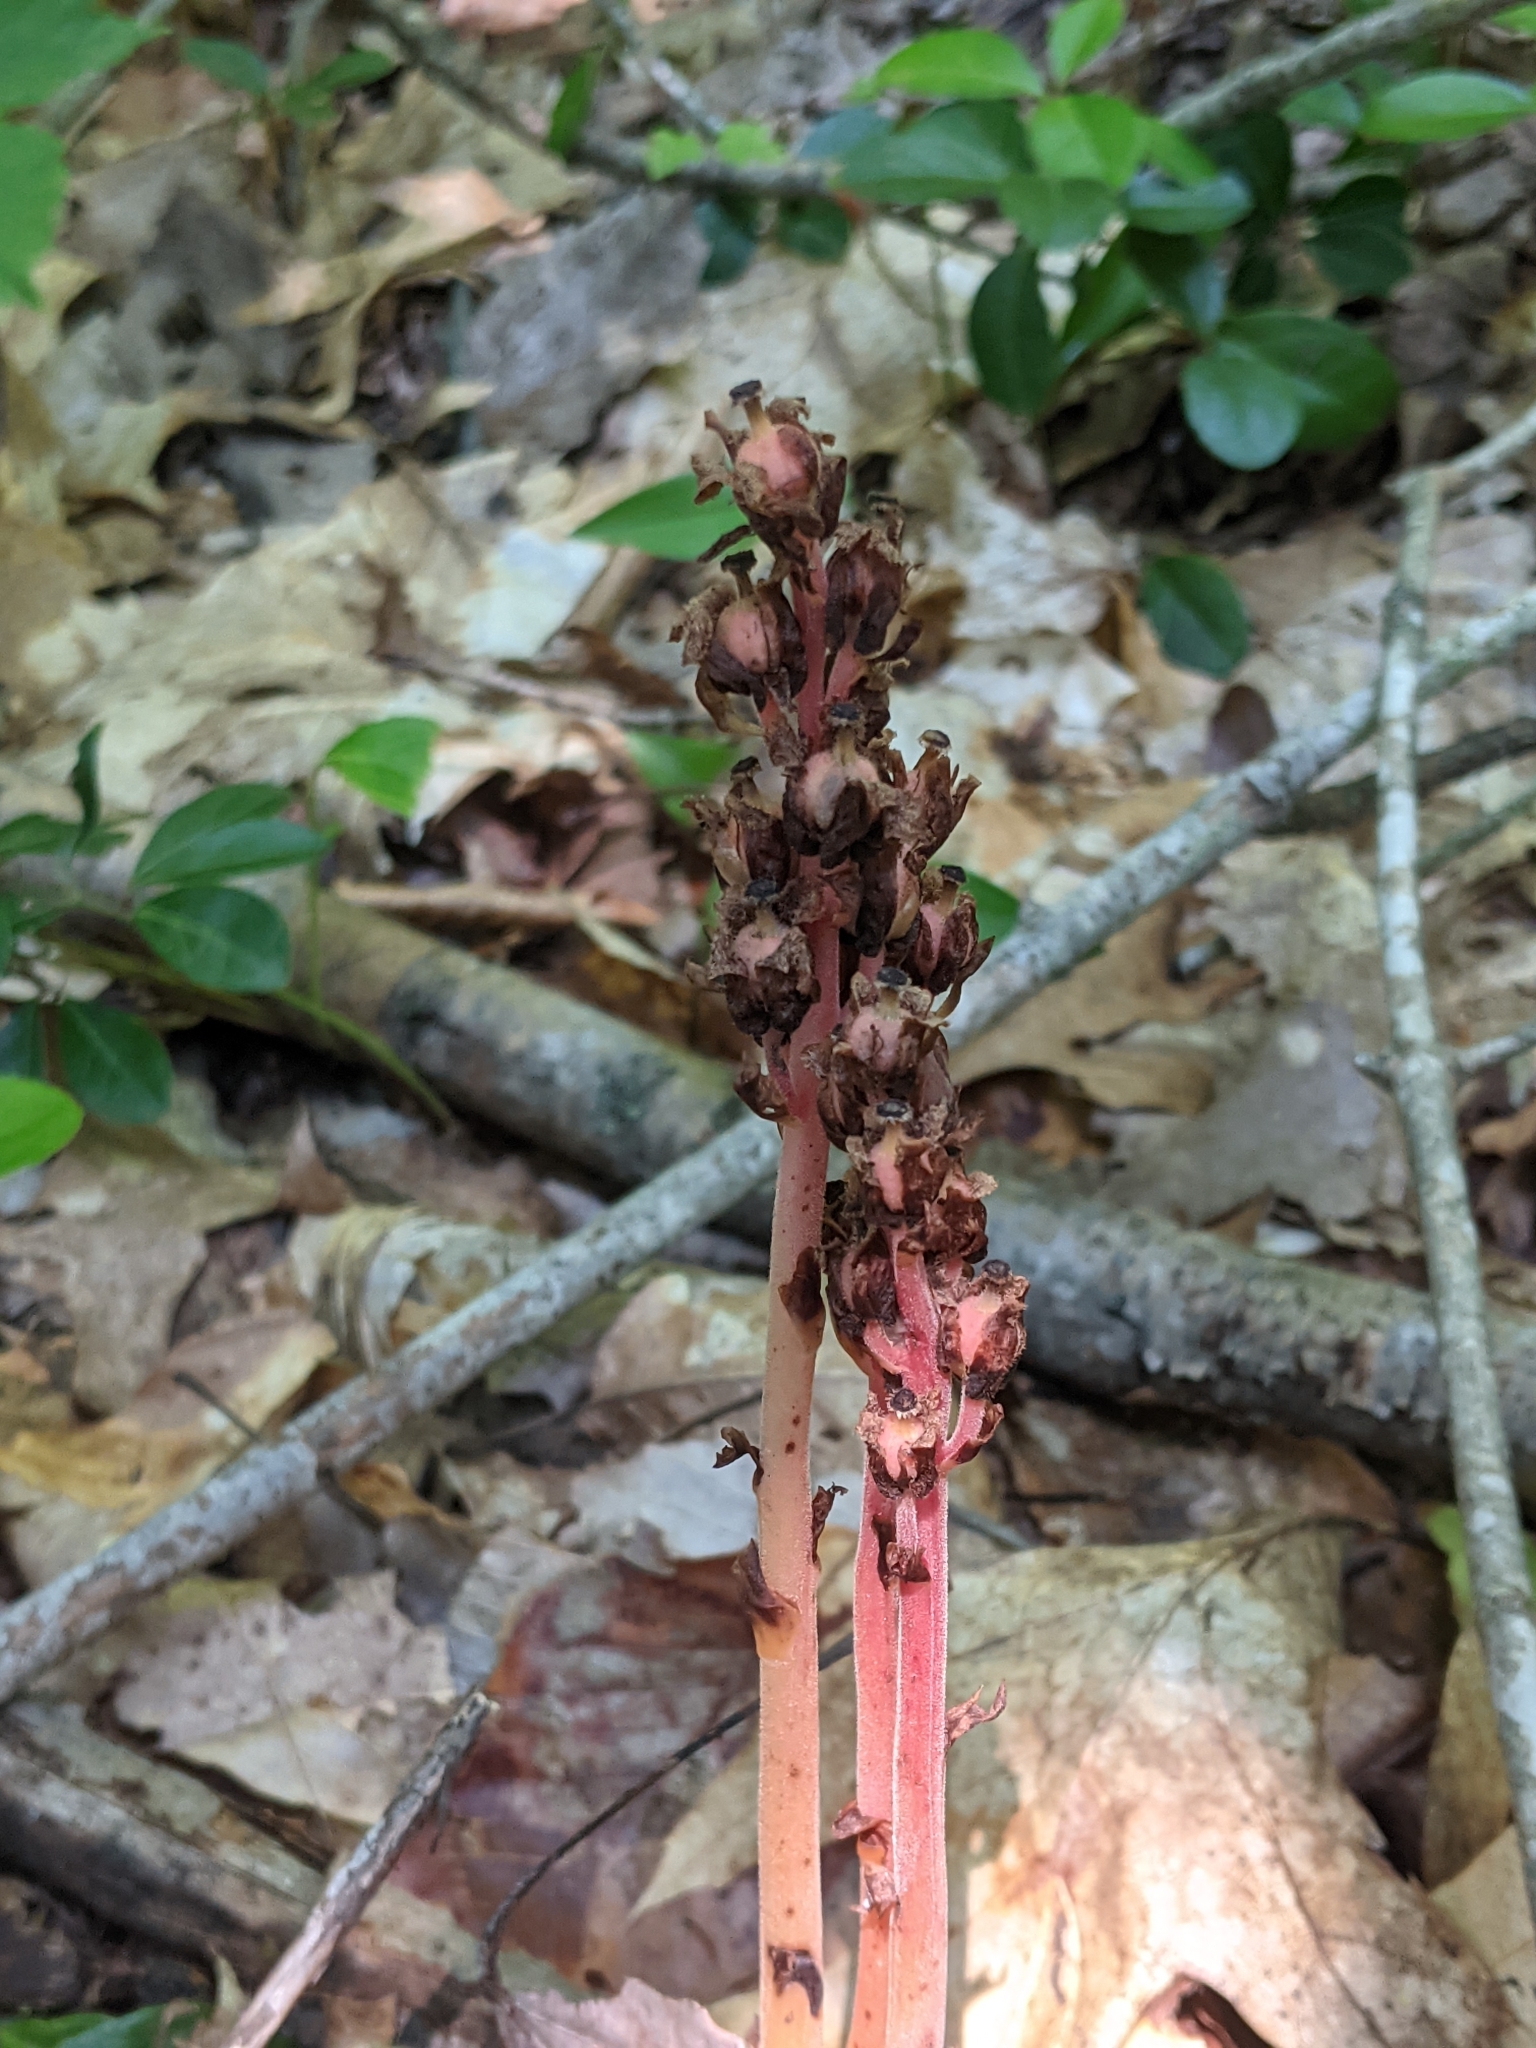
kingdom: Plantae
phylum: Tracheophyta
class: Magnoliopsida
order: Ericales
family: Ericaceae
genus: Hypopitys
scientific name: Hypopitys monotropa
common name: Yellow bird's-nest
